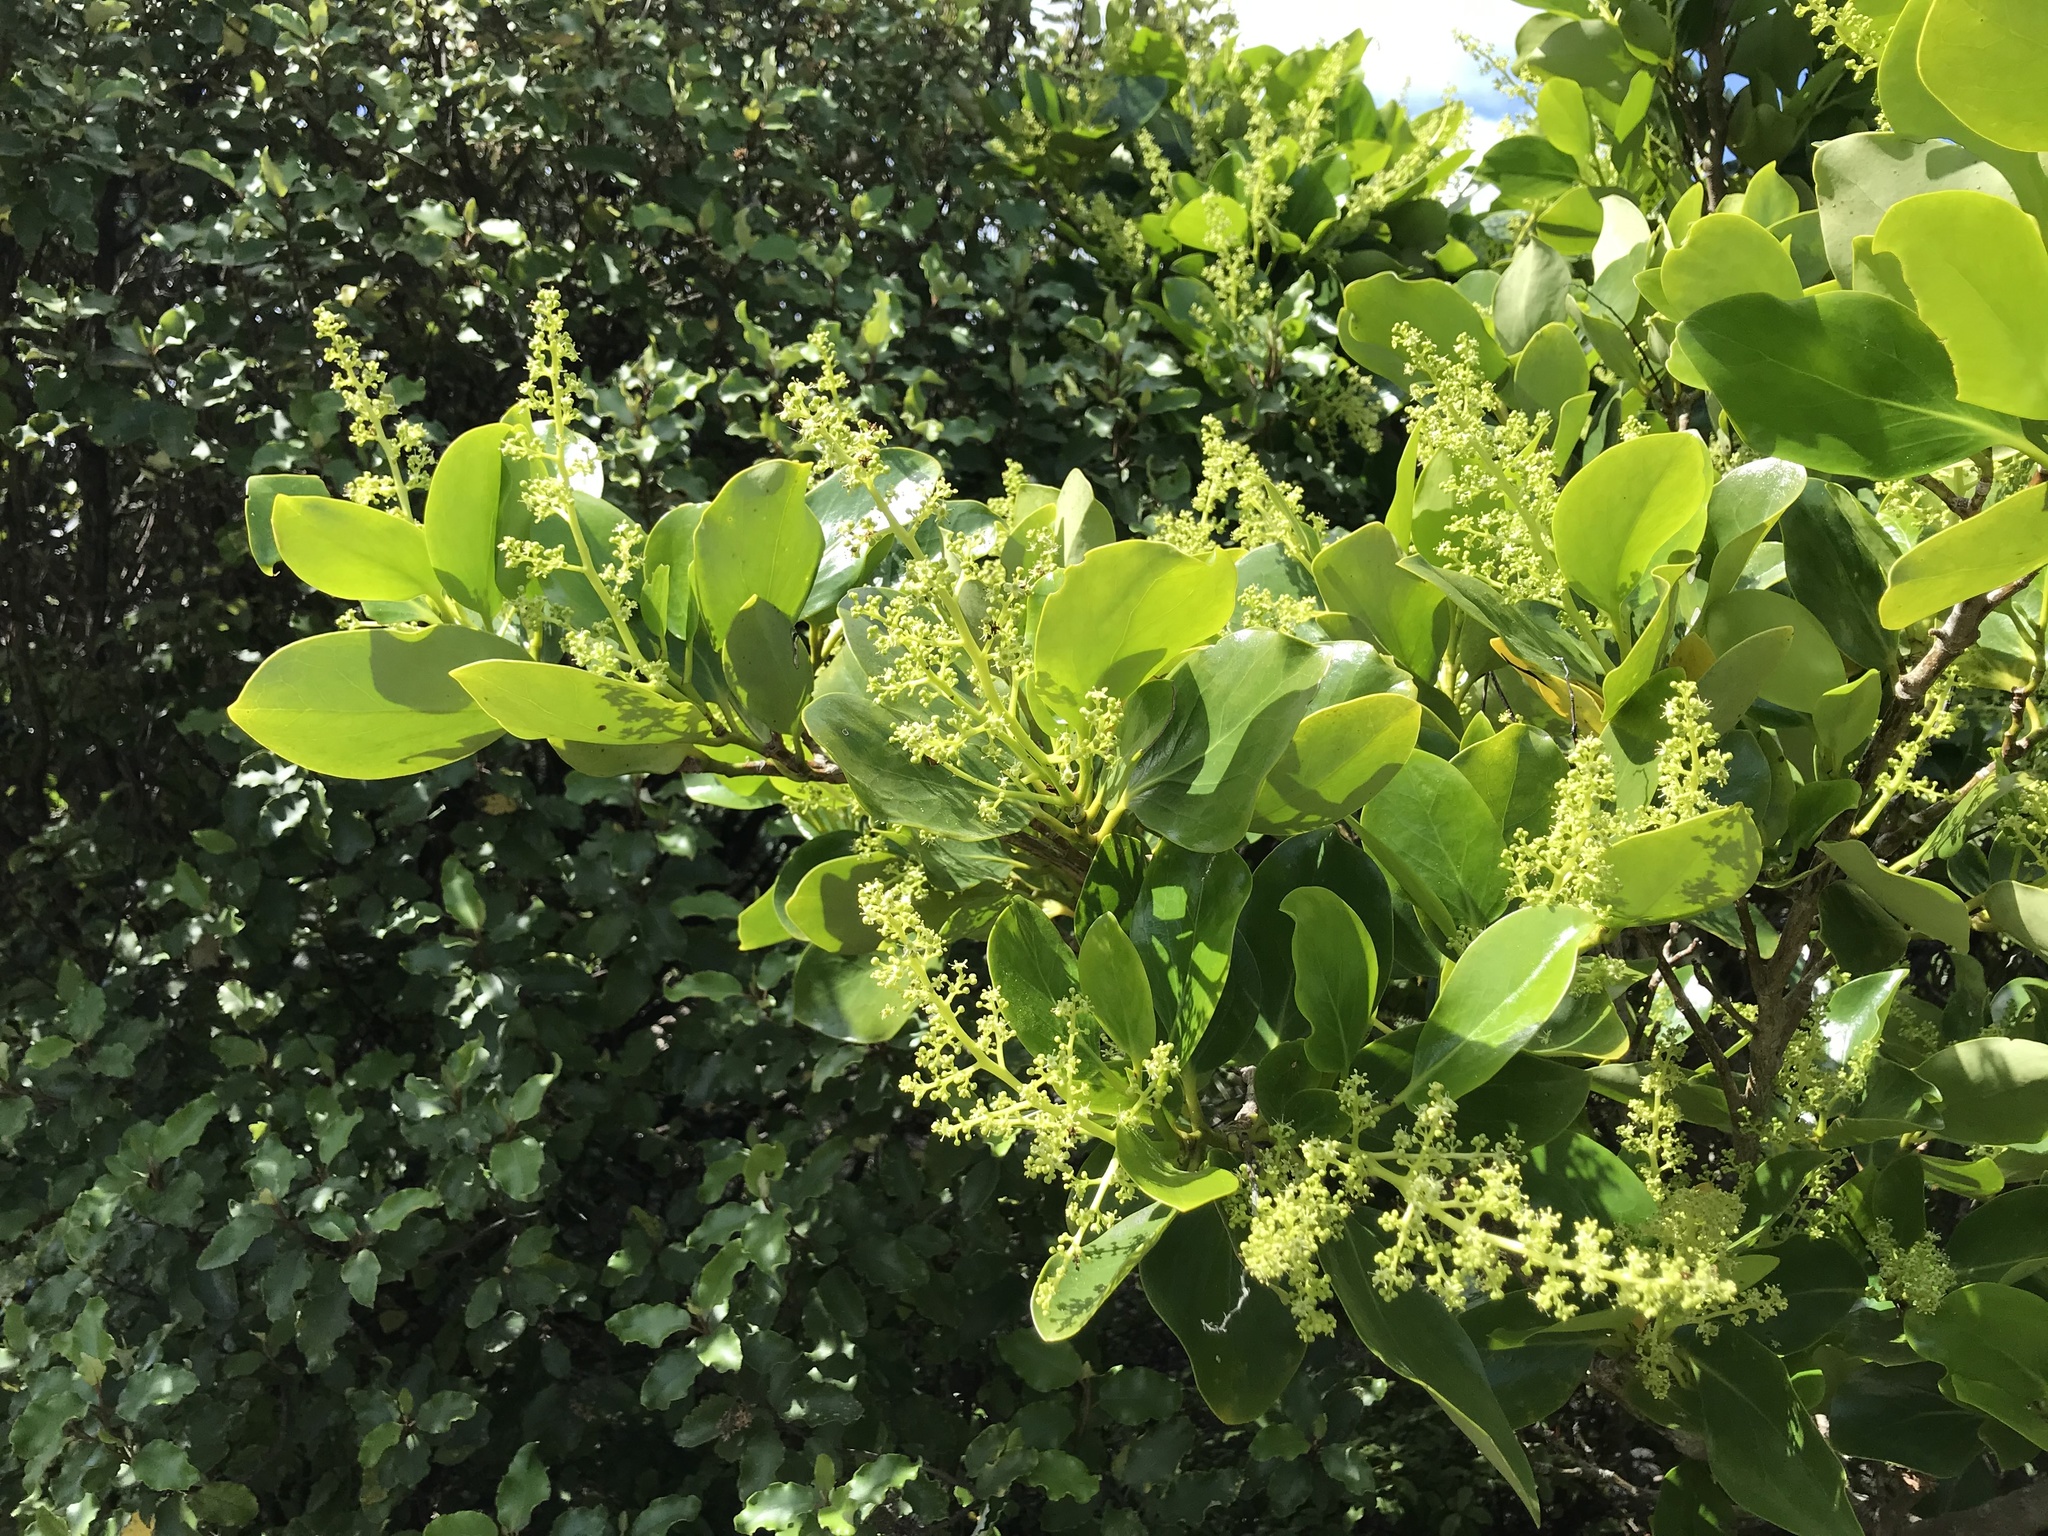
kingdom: Plantae
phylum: Tracheophyta
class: Magnoliopsida
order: Apiales
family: Griseliniaceae
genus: Griselinia
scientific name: Griselinia lucida
